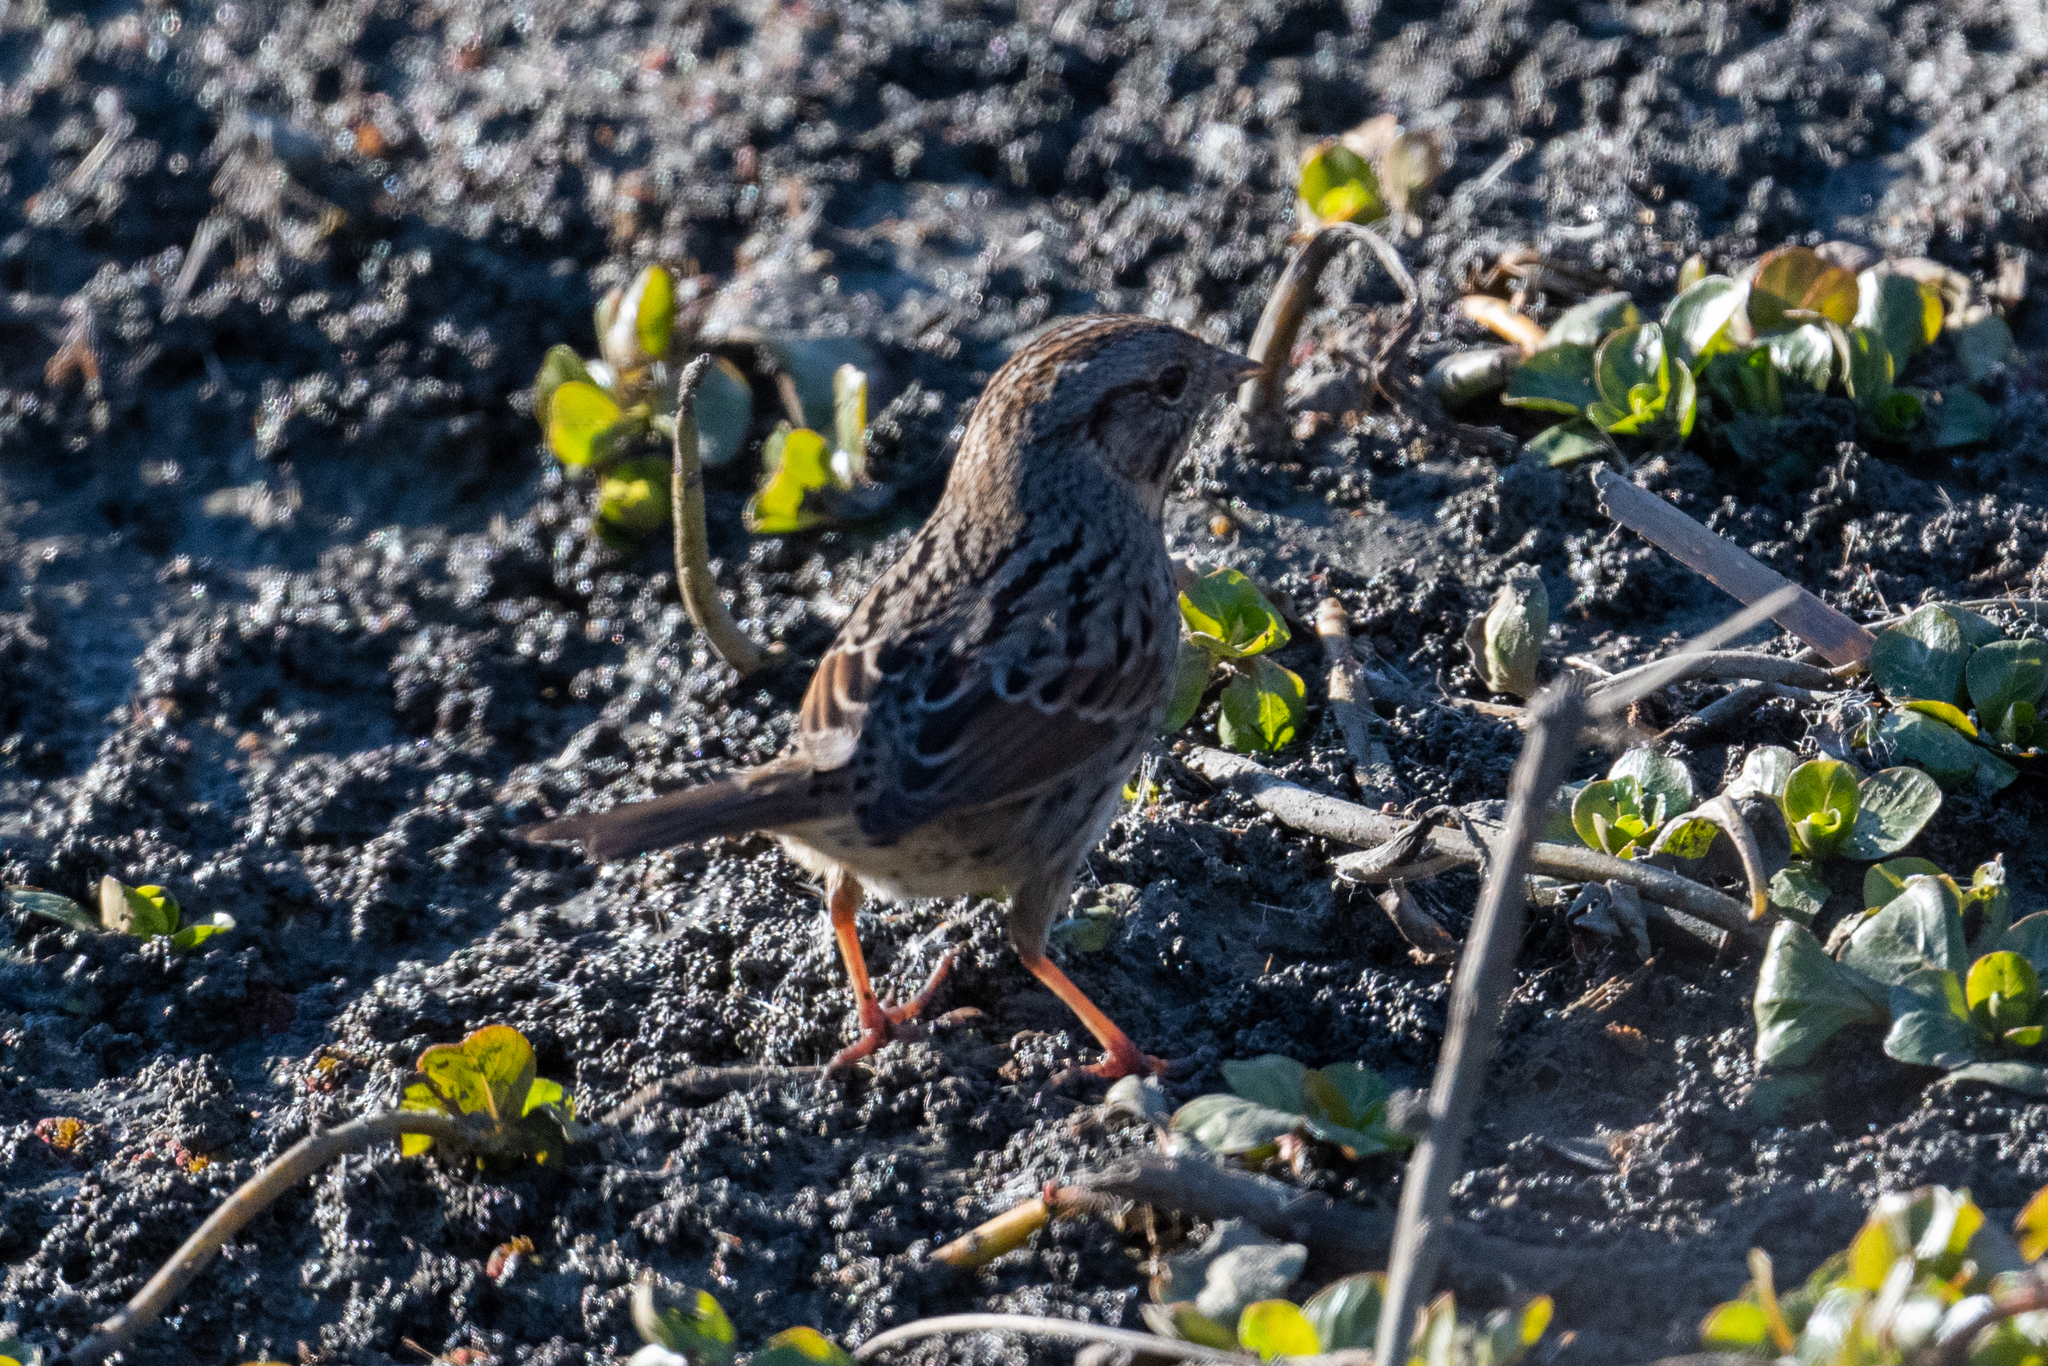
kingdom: Animalia
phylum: Chordata
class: Aves
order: Passeriformes
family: Passerellidae
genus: Melospiza
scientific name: Melospiza lincolnii
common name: Lincoln's sparrow
